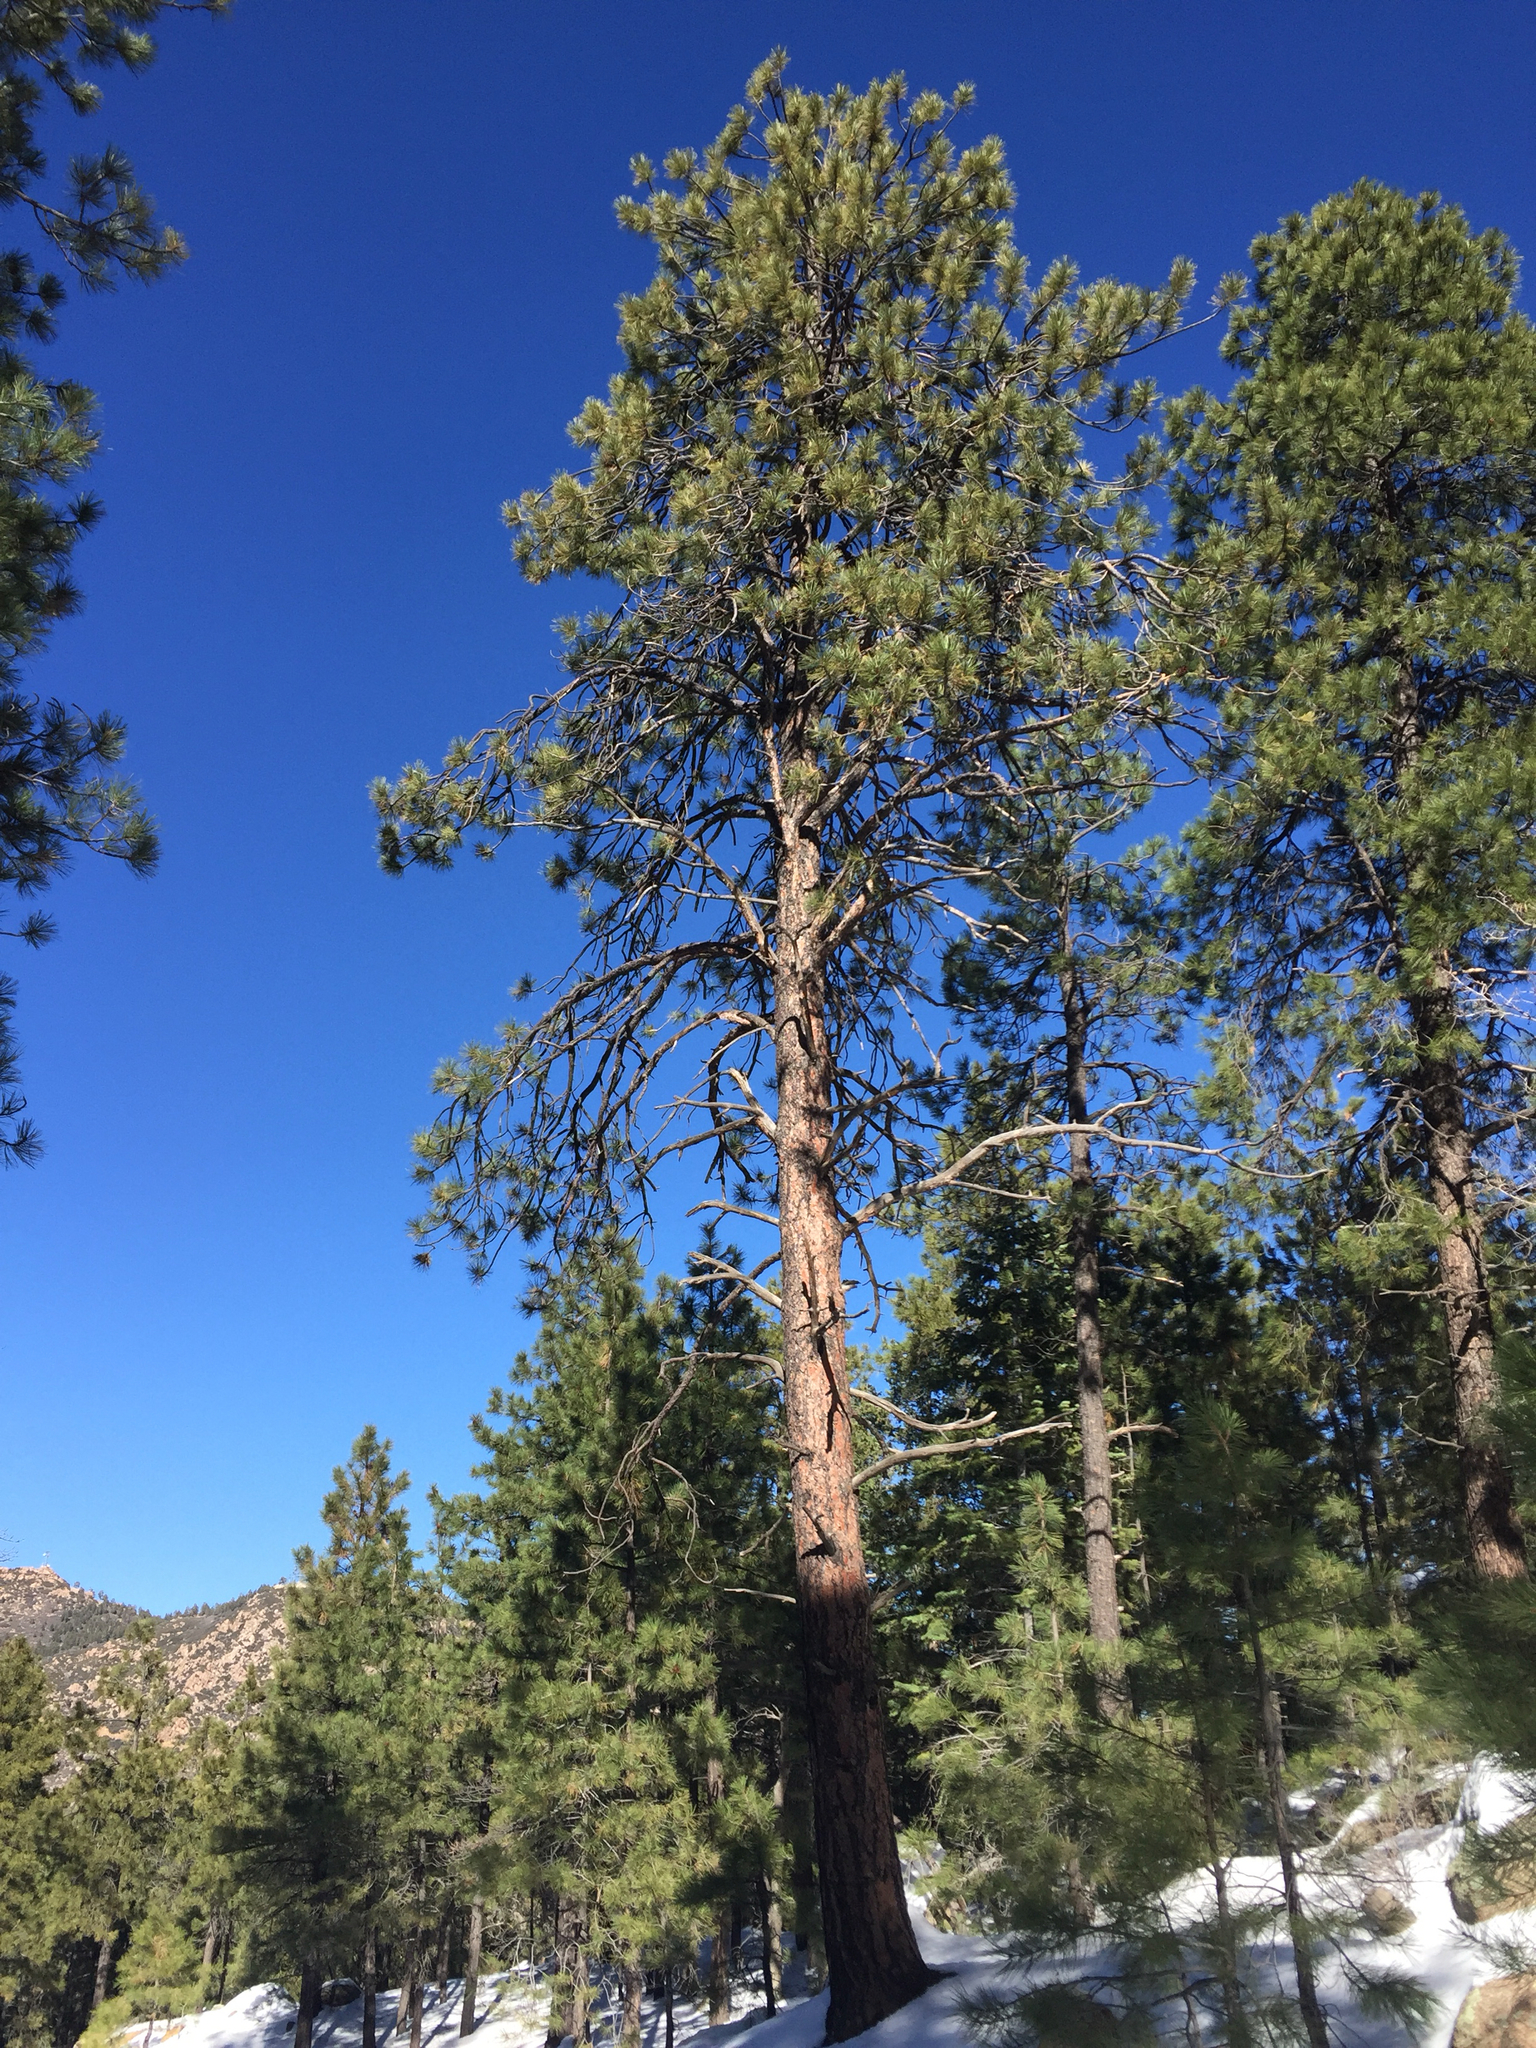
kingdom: Plantae
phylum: Tracheophyta
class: Pinopsida
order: Pinales
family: Pinaceae
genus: Pinus
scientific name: Pinus ponderosa
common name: Western yellow-pine
